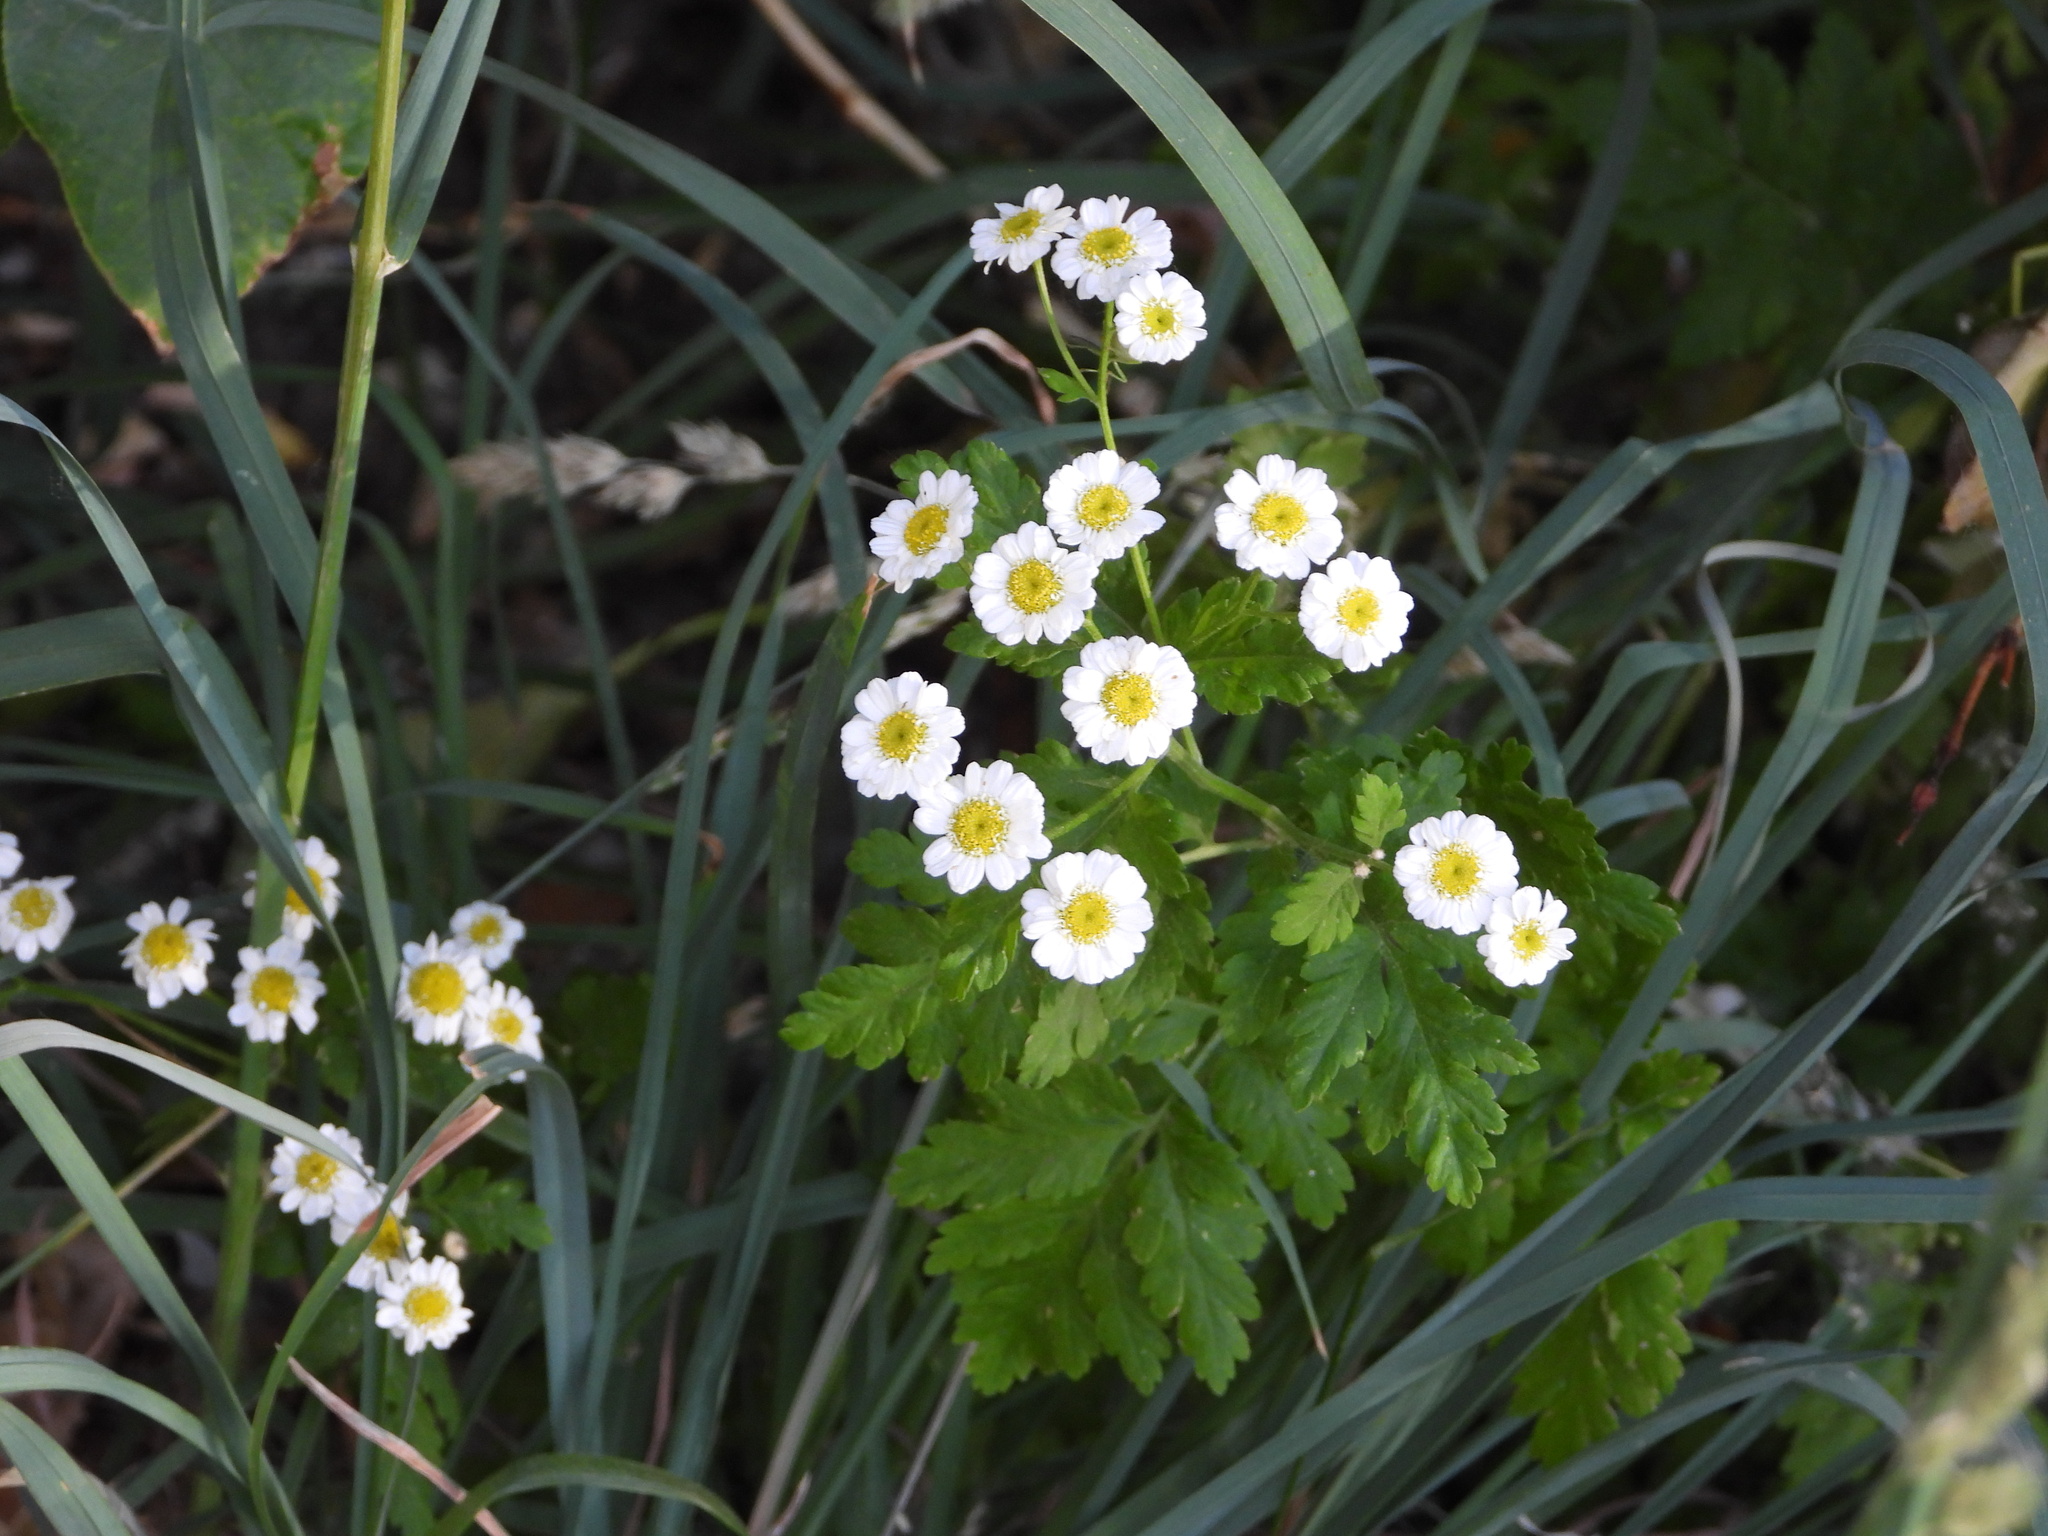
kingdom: Plantae
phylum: Tracheophyta
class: Magnoliopsida
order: Asterales
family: Asteraceae
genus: Tanacetum
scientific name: Tanacetum parthenium
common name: Feverfew
